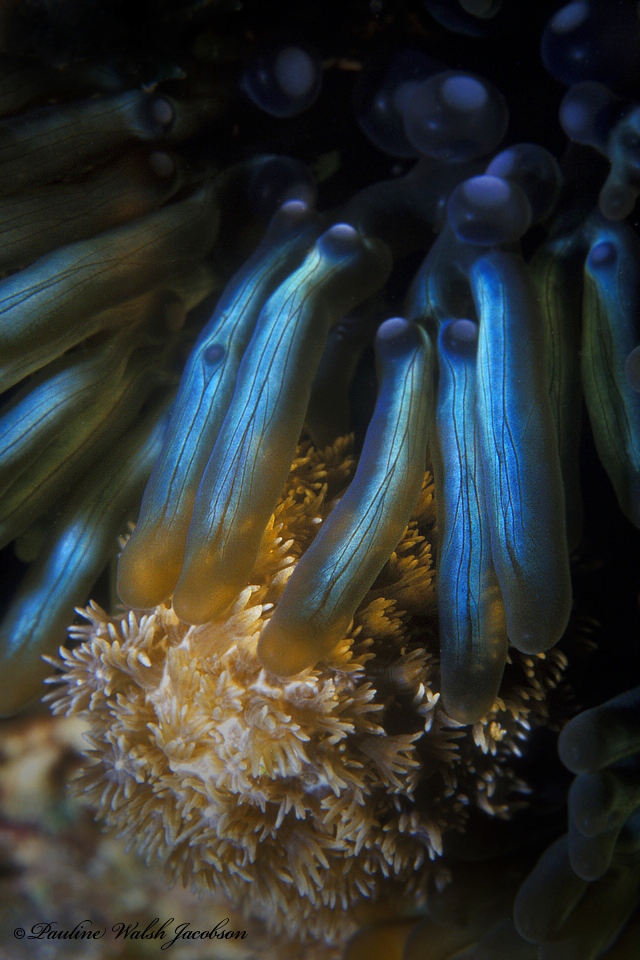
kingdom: Animalia
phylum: Cnidaria
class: Anthozoa
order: Actiniaria
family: Aliciidae
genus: Lebrunia
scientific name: Lebrunia neglecta
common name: Branching anemone
